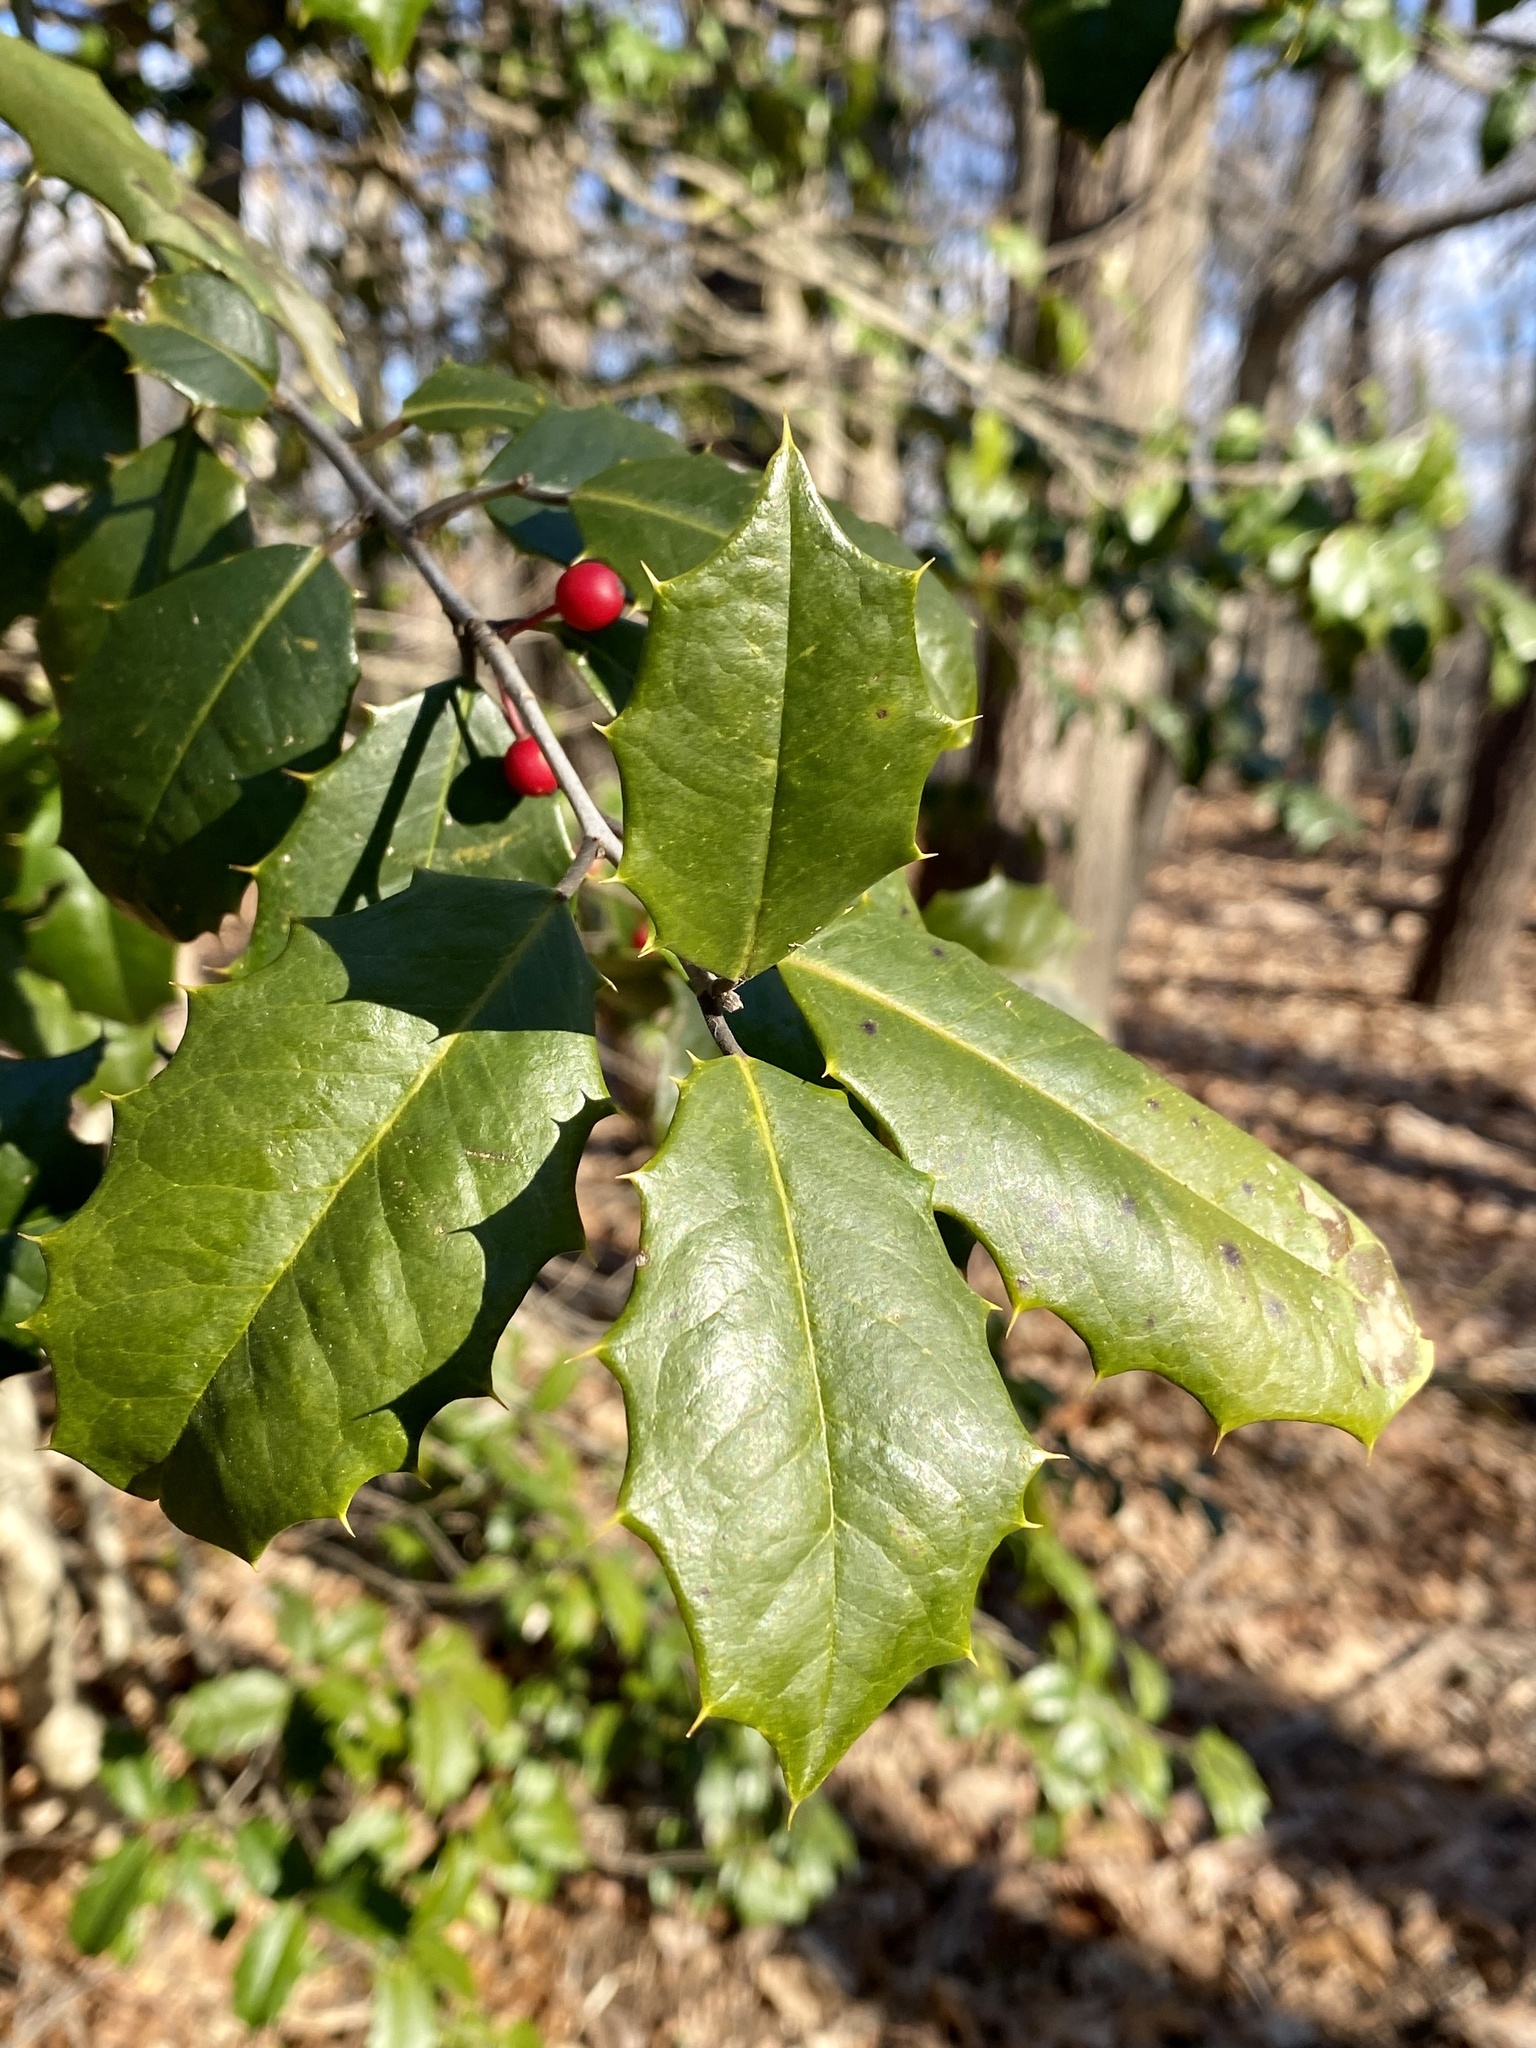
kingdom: Plantae
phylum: Tracheophyta
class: Magnoliopsida
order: Aquifoliales
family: Aquifoliaceae
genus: Ilex
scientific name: Ilex opaca
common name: American holly
